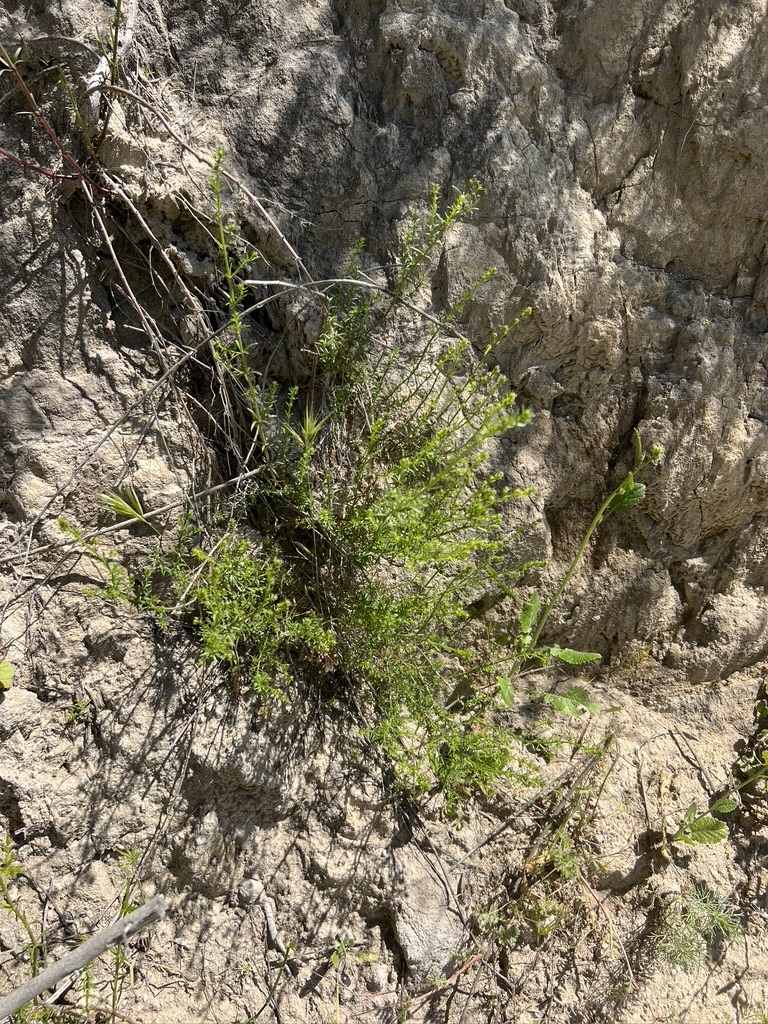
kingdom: Plantae
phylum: Tracheophyta
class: Magnoliopsida
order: Gentianales
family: Rubiaceae
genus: Galium
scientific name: Galium angustifolium
